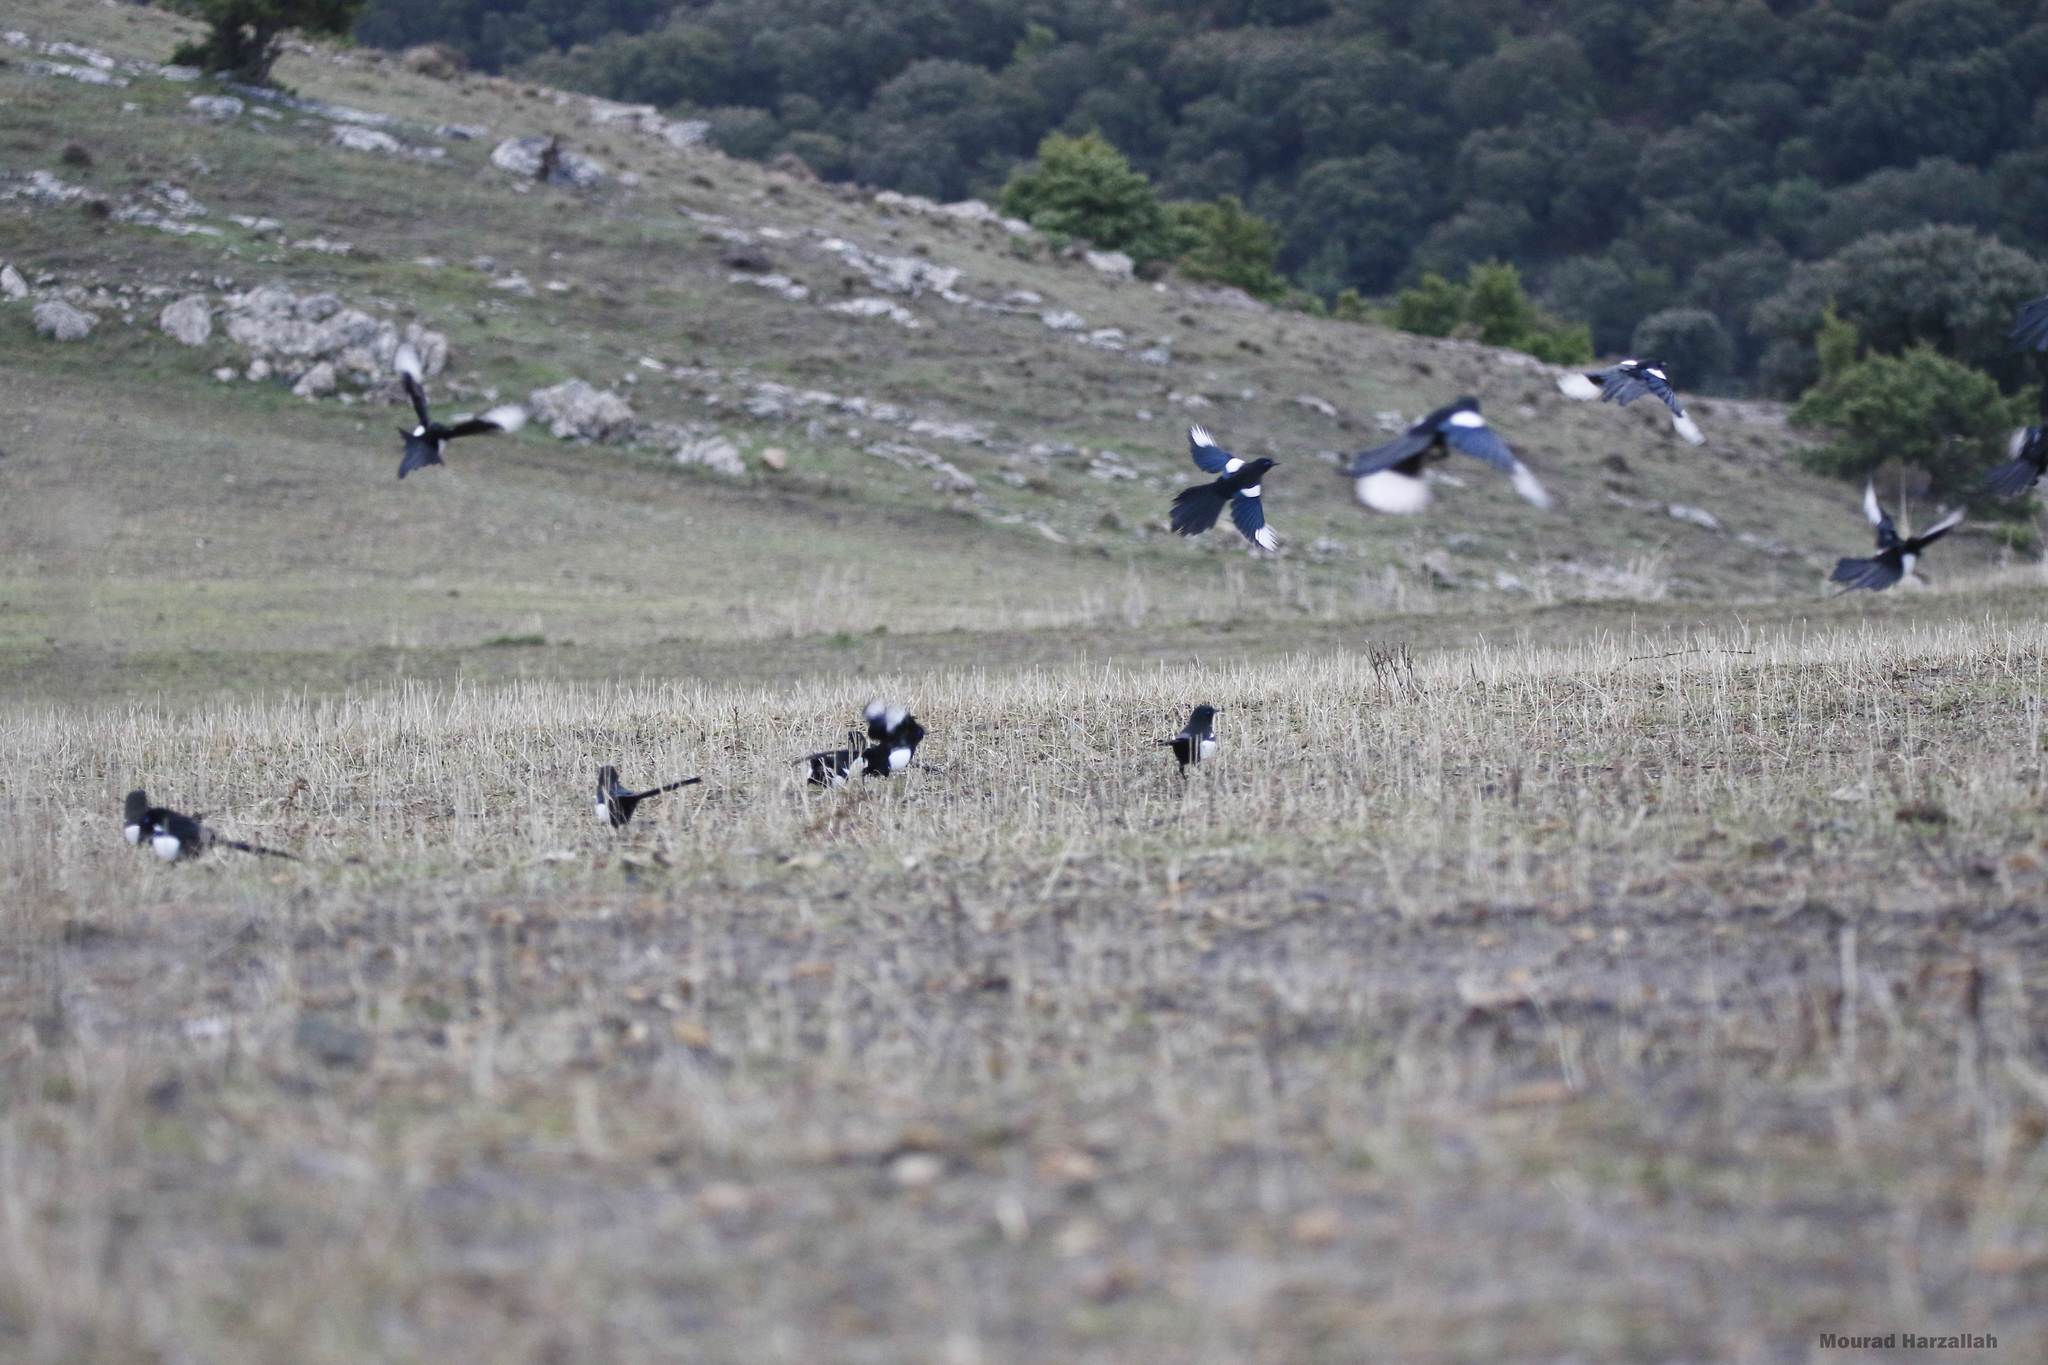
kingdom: Animalia
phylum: Chordata
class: Aves
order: Passeriformes
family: Corvidae
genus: Pica
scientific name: Pica mauritanica
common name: Maghreb magpie
